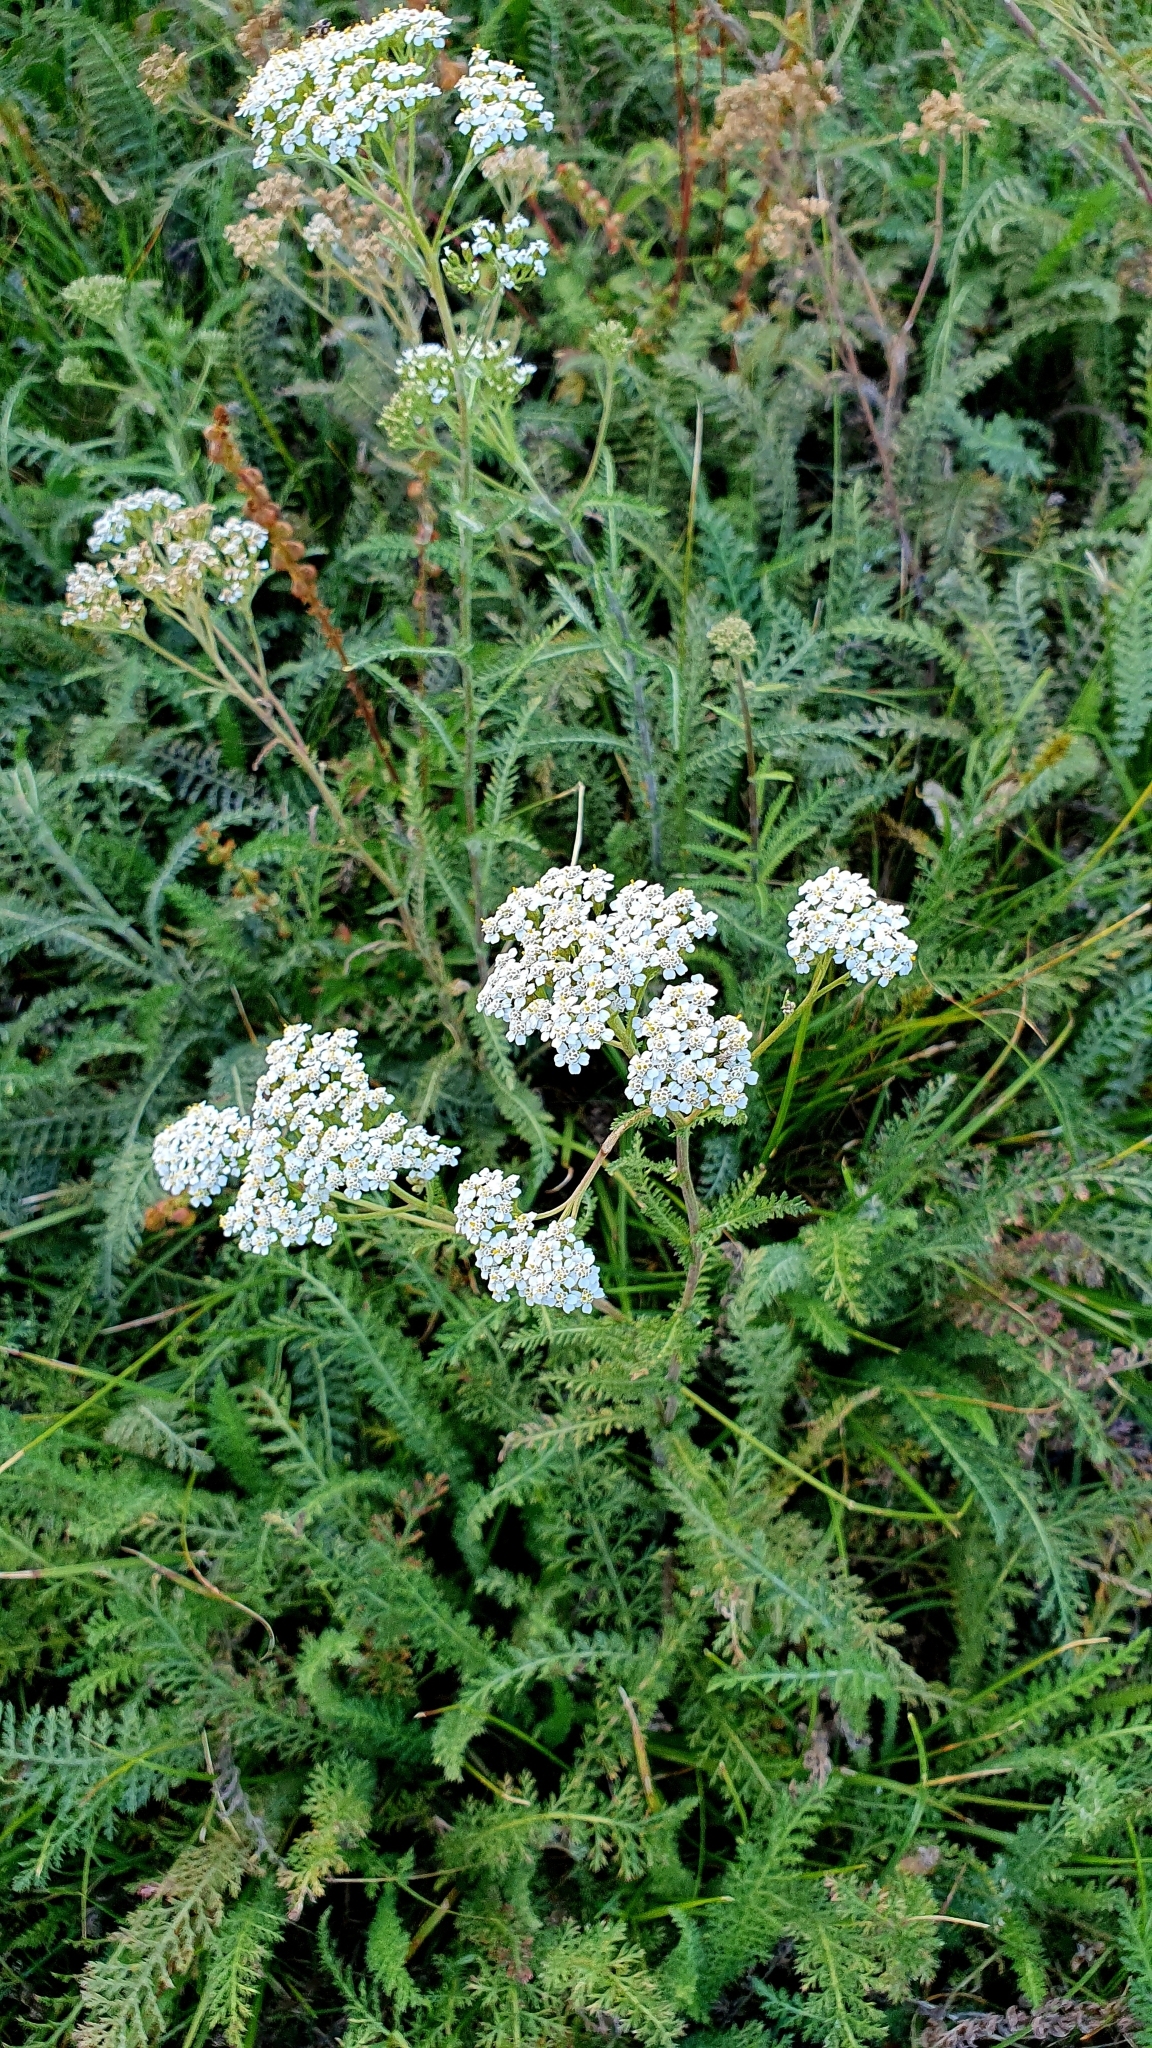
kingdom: Plantae
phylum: Tracheophyta
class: Magnoliopsida
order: Asterales
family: Asteraceae
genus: Achillea
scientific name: Achillea millefolium
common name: Yarrow
